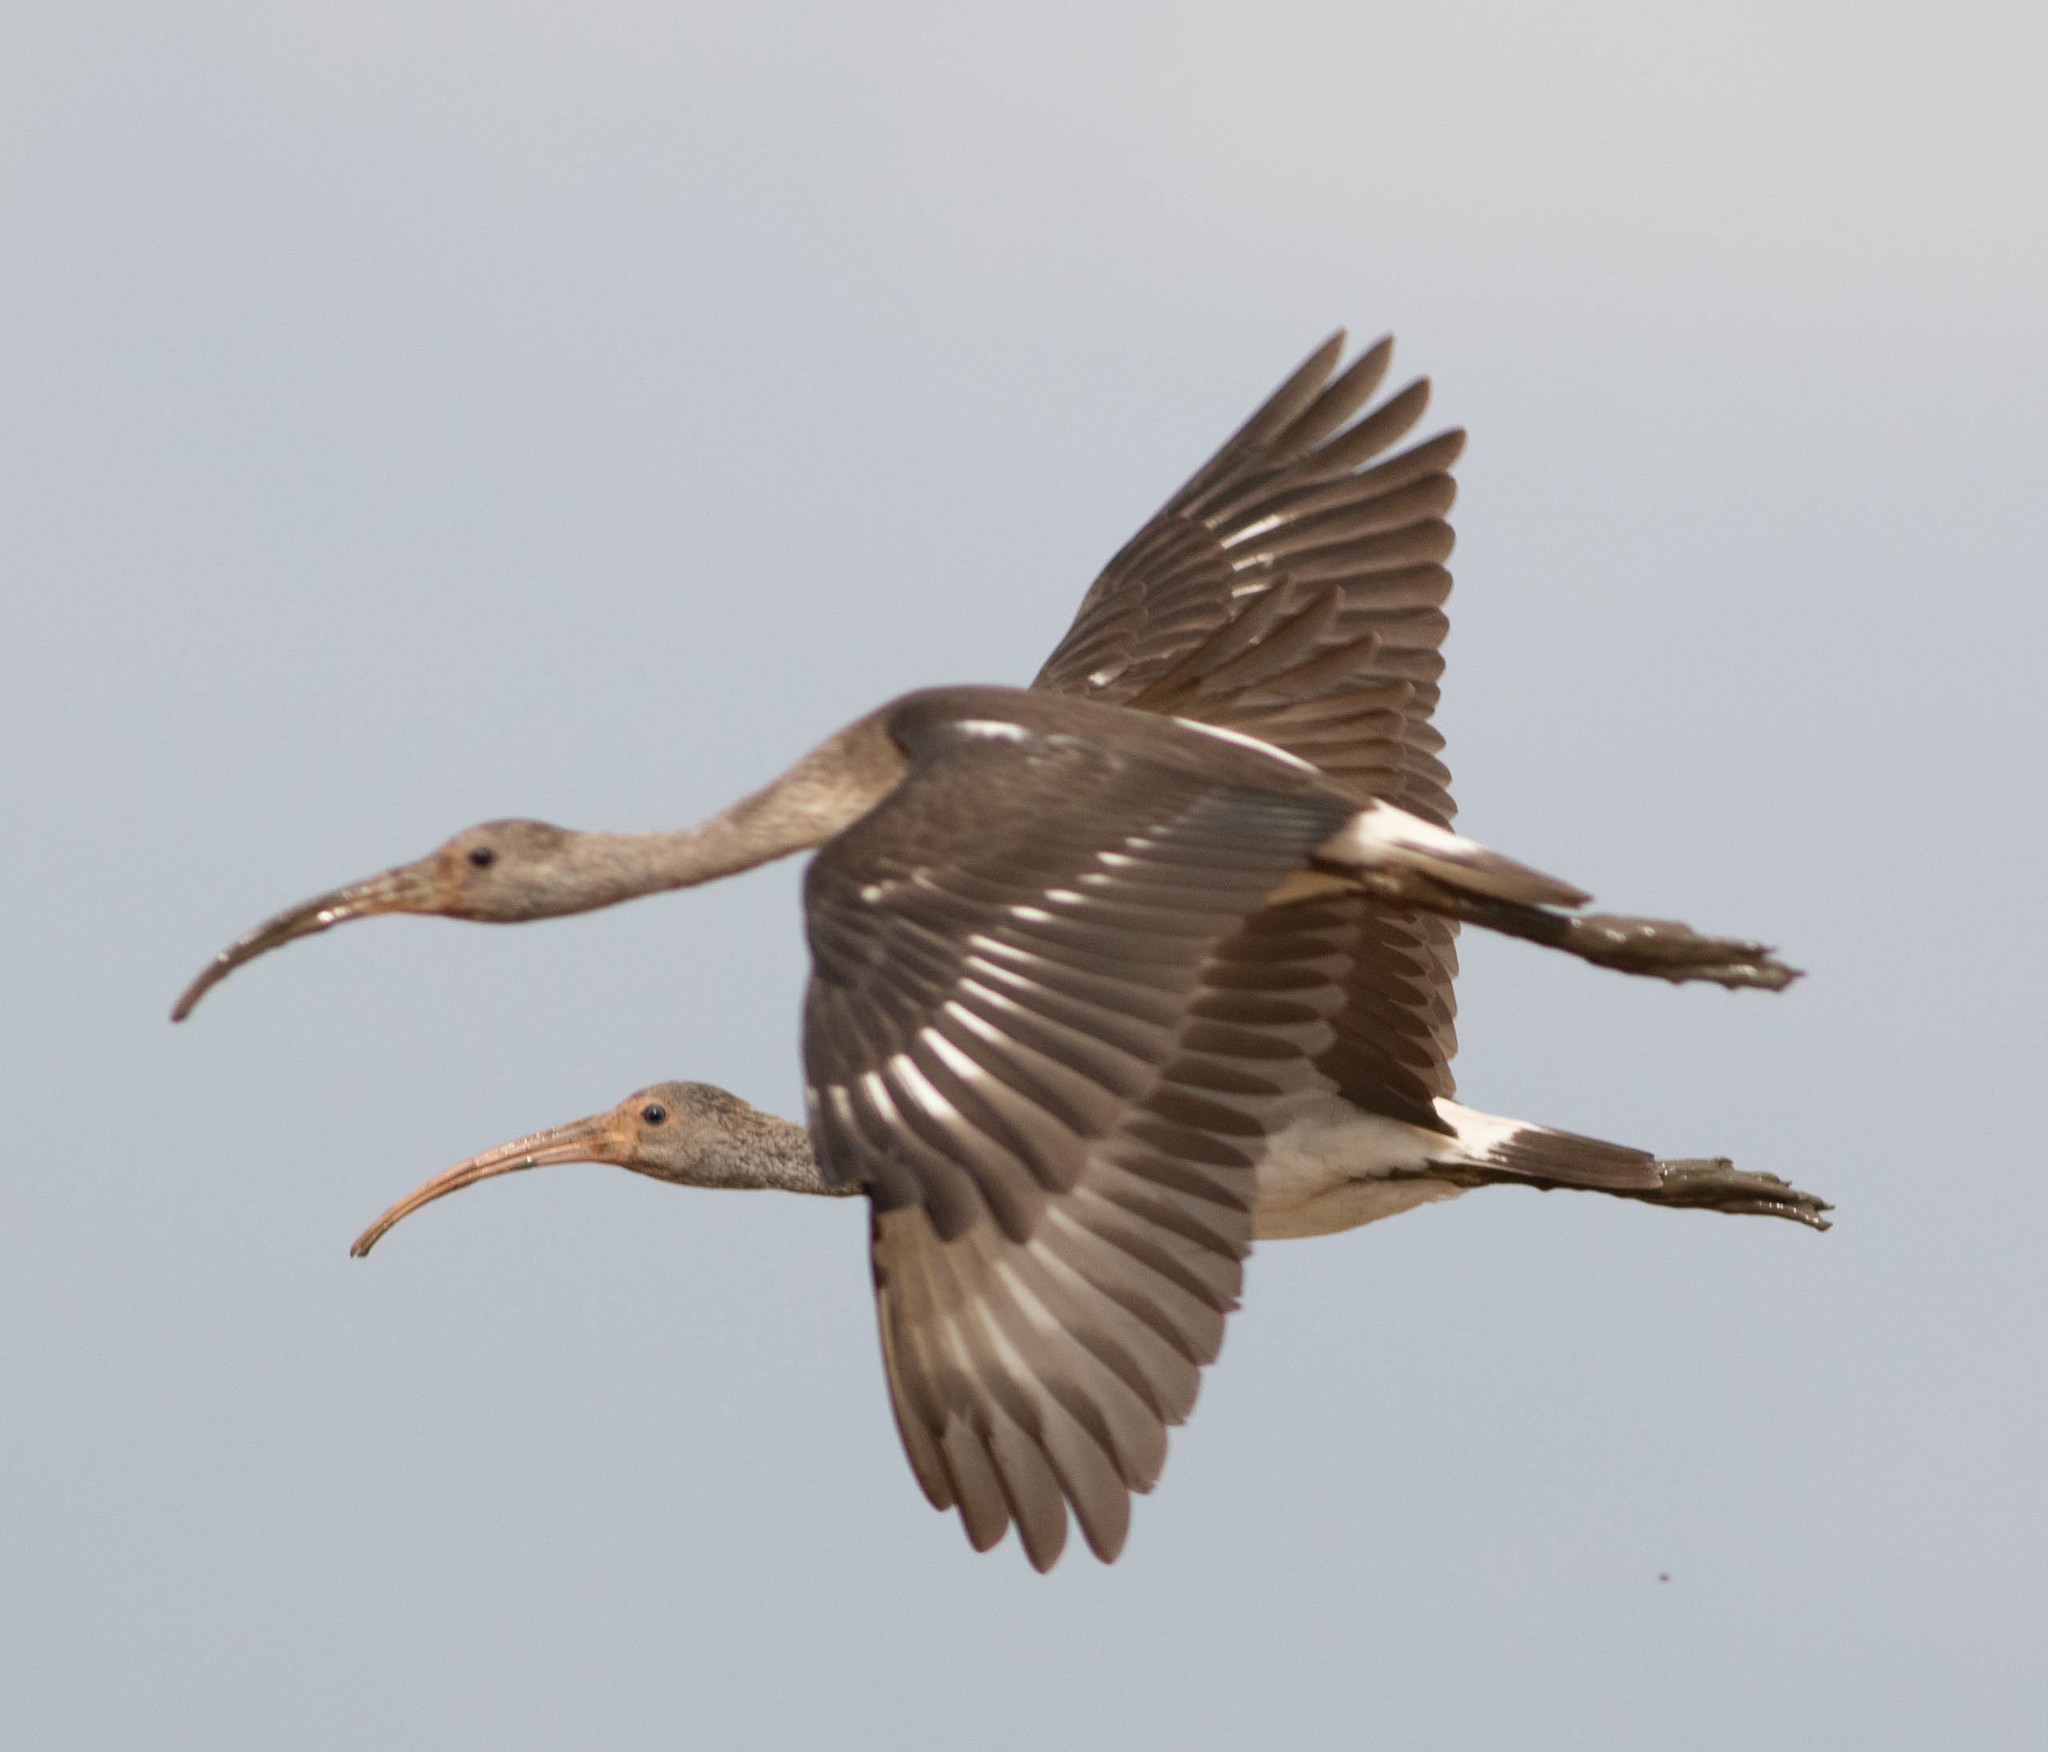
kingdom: Animalia
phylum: Chordata
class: Aves
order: Pelecaniformes
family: Threskiornithidae
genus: Eudocimus
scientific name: Eudocimus albus
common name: White ibis
